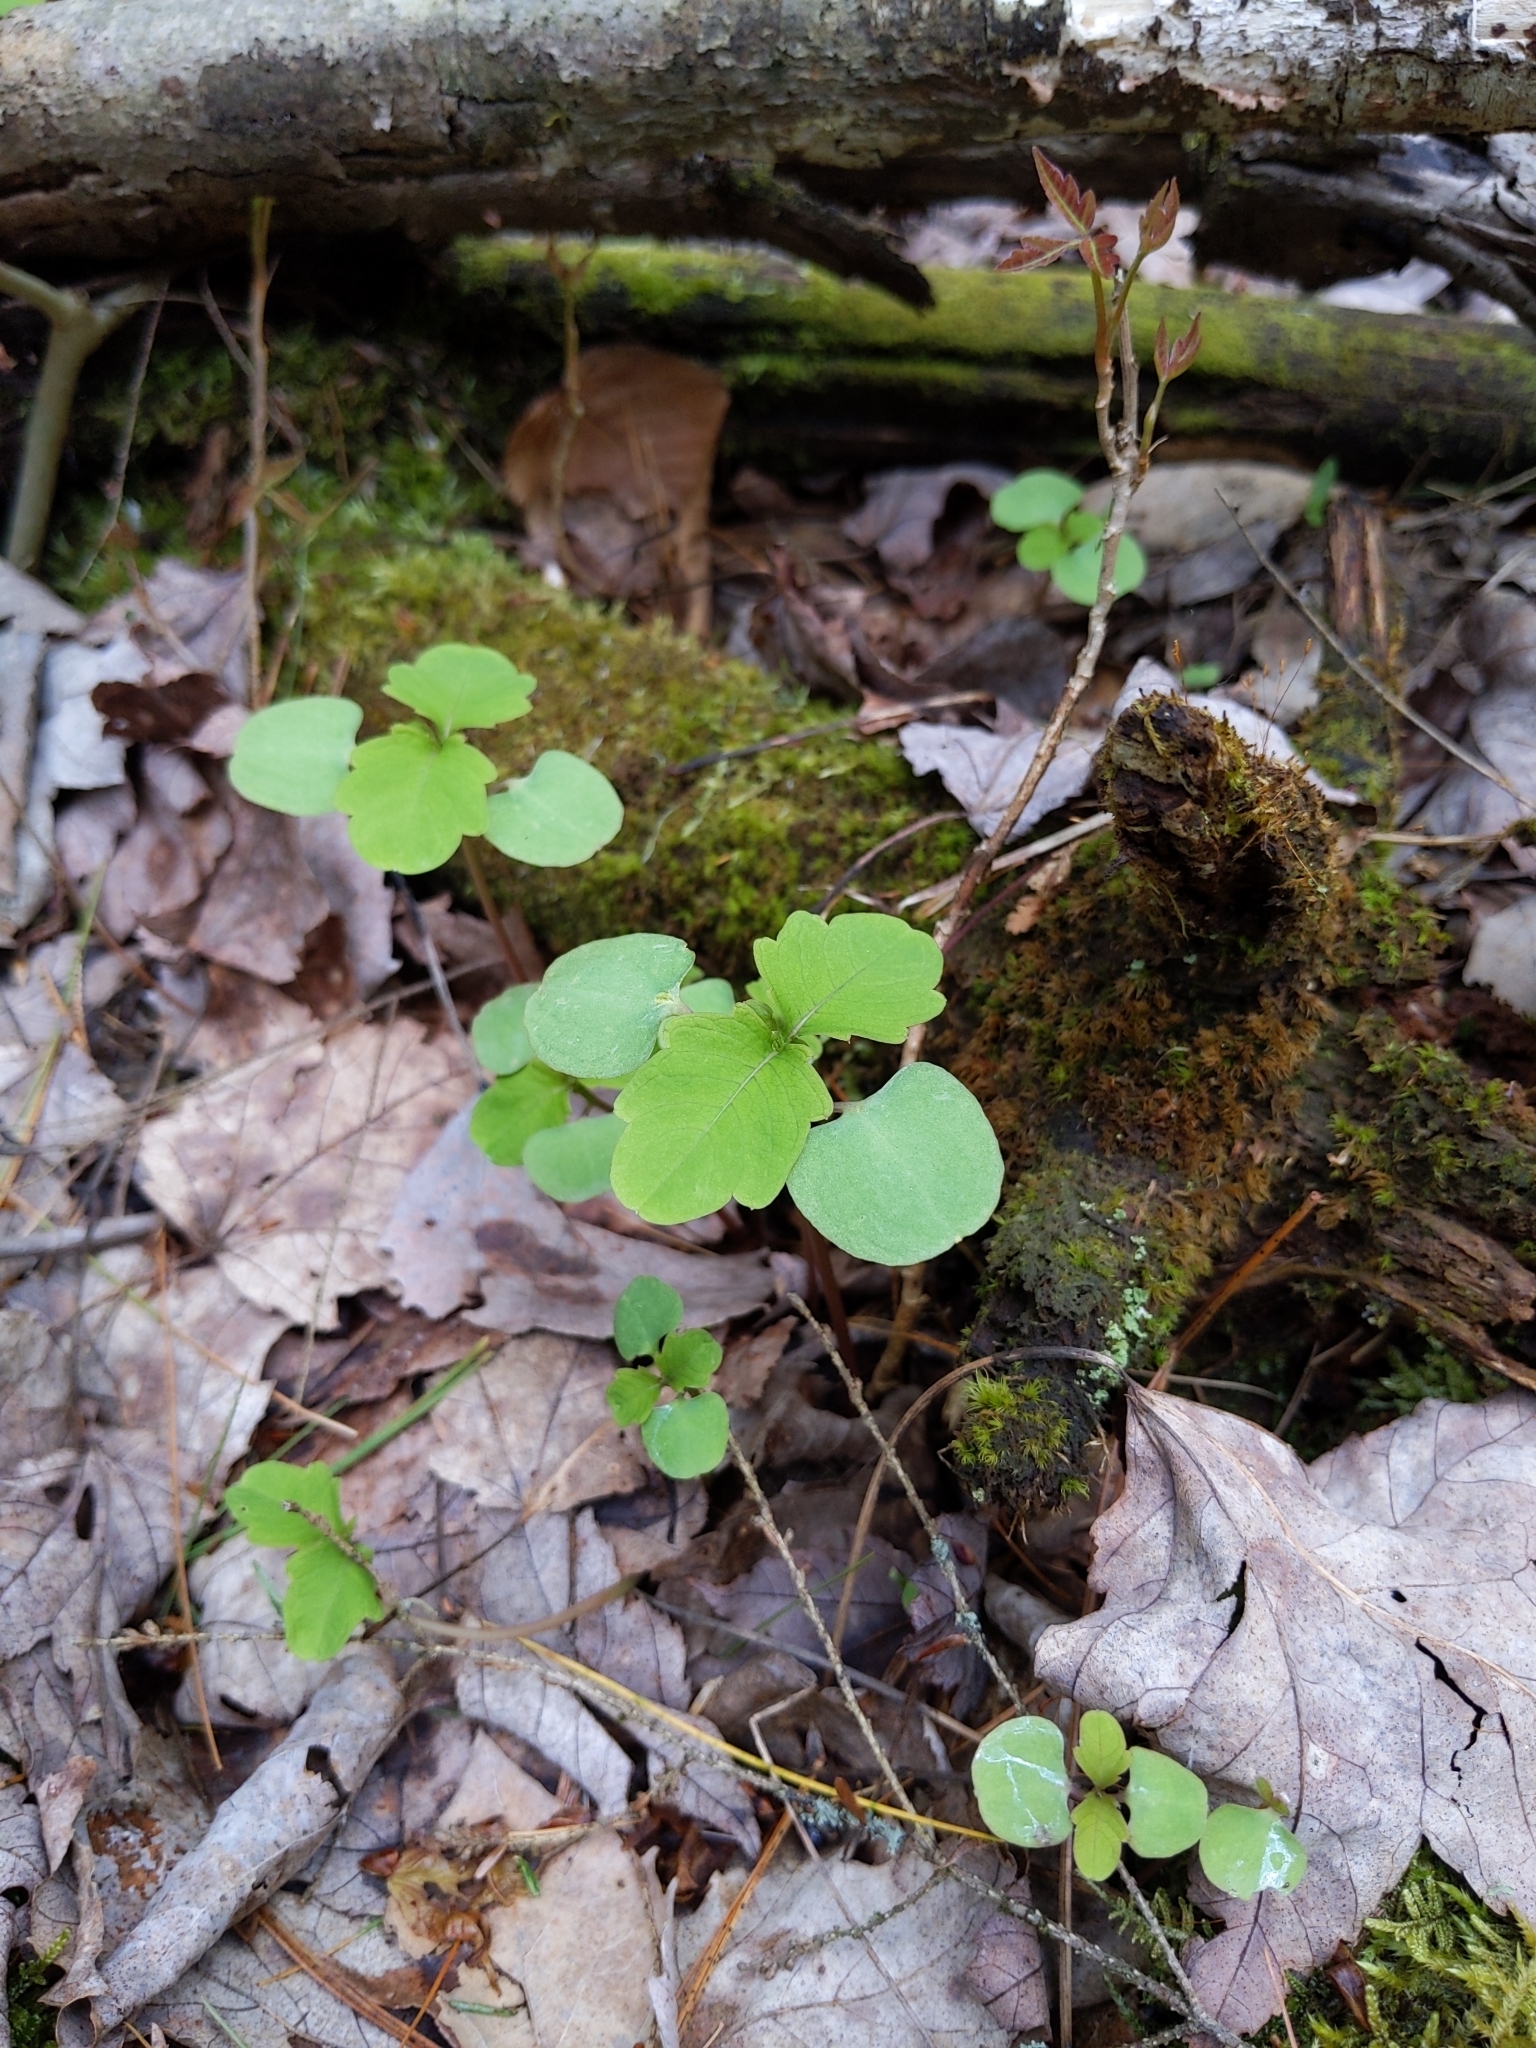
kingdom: Plantae
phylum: Tracheophyta
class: Magnoliopsida
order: Ericales
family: Balsaminaceae
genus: Impatiens
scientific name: Impatiens
